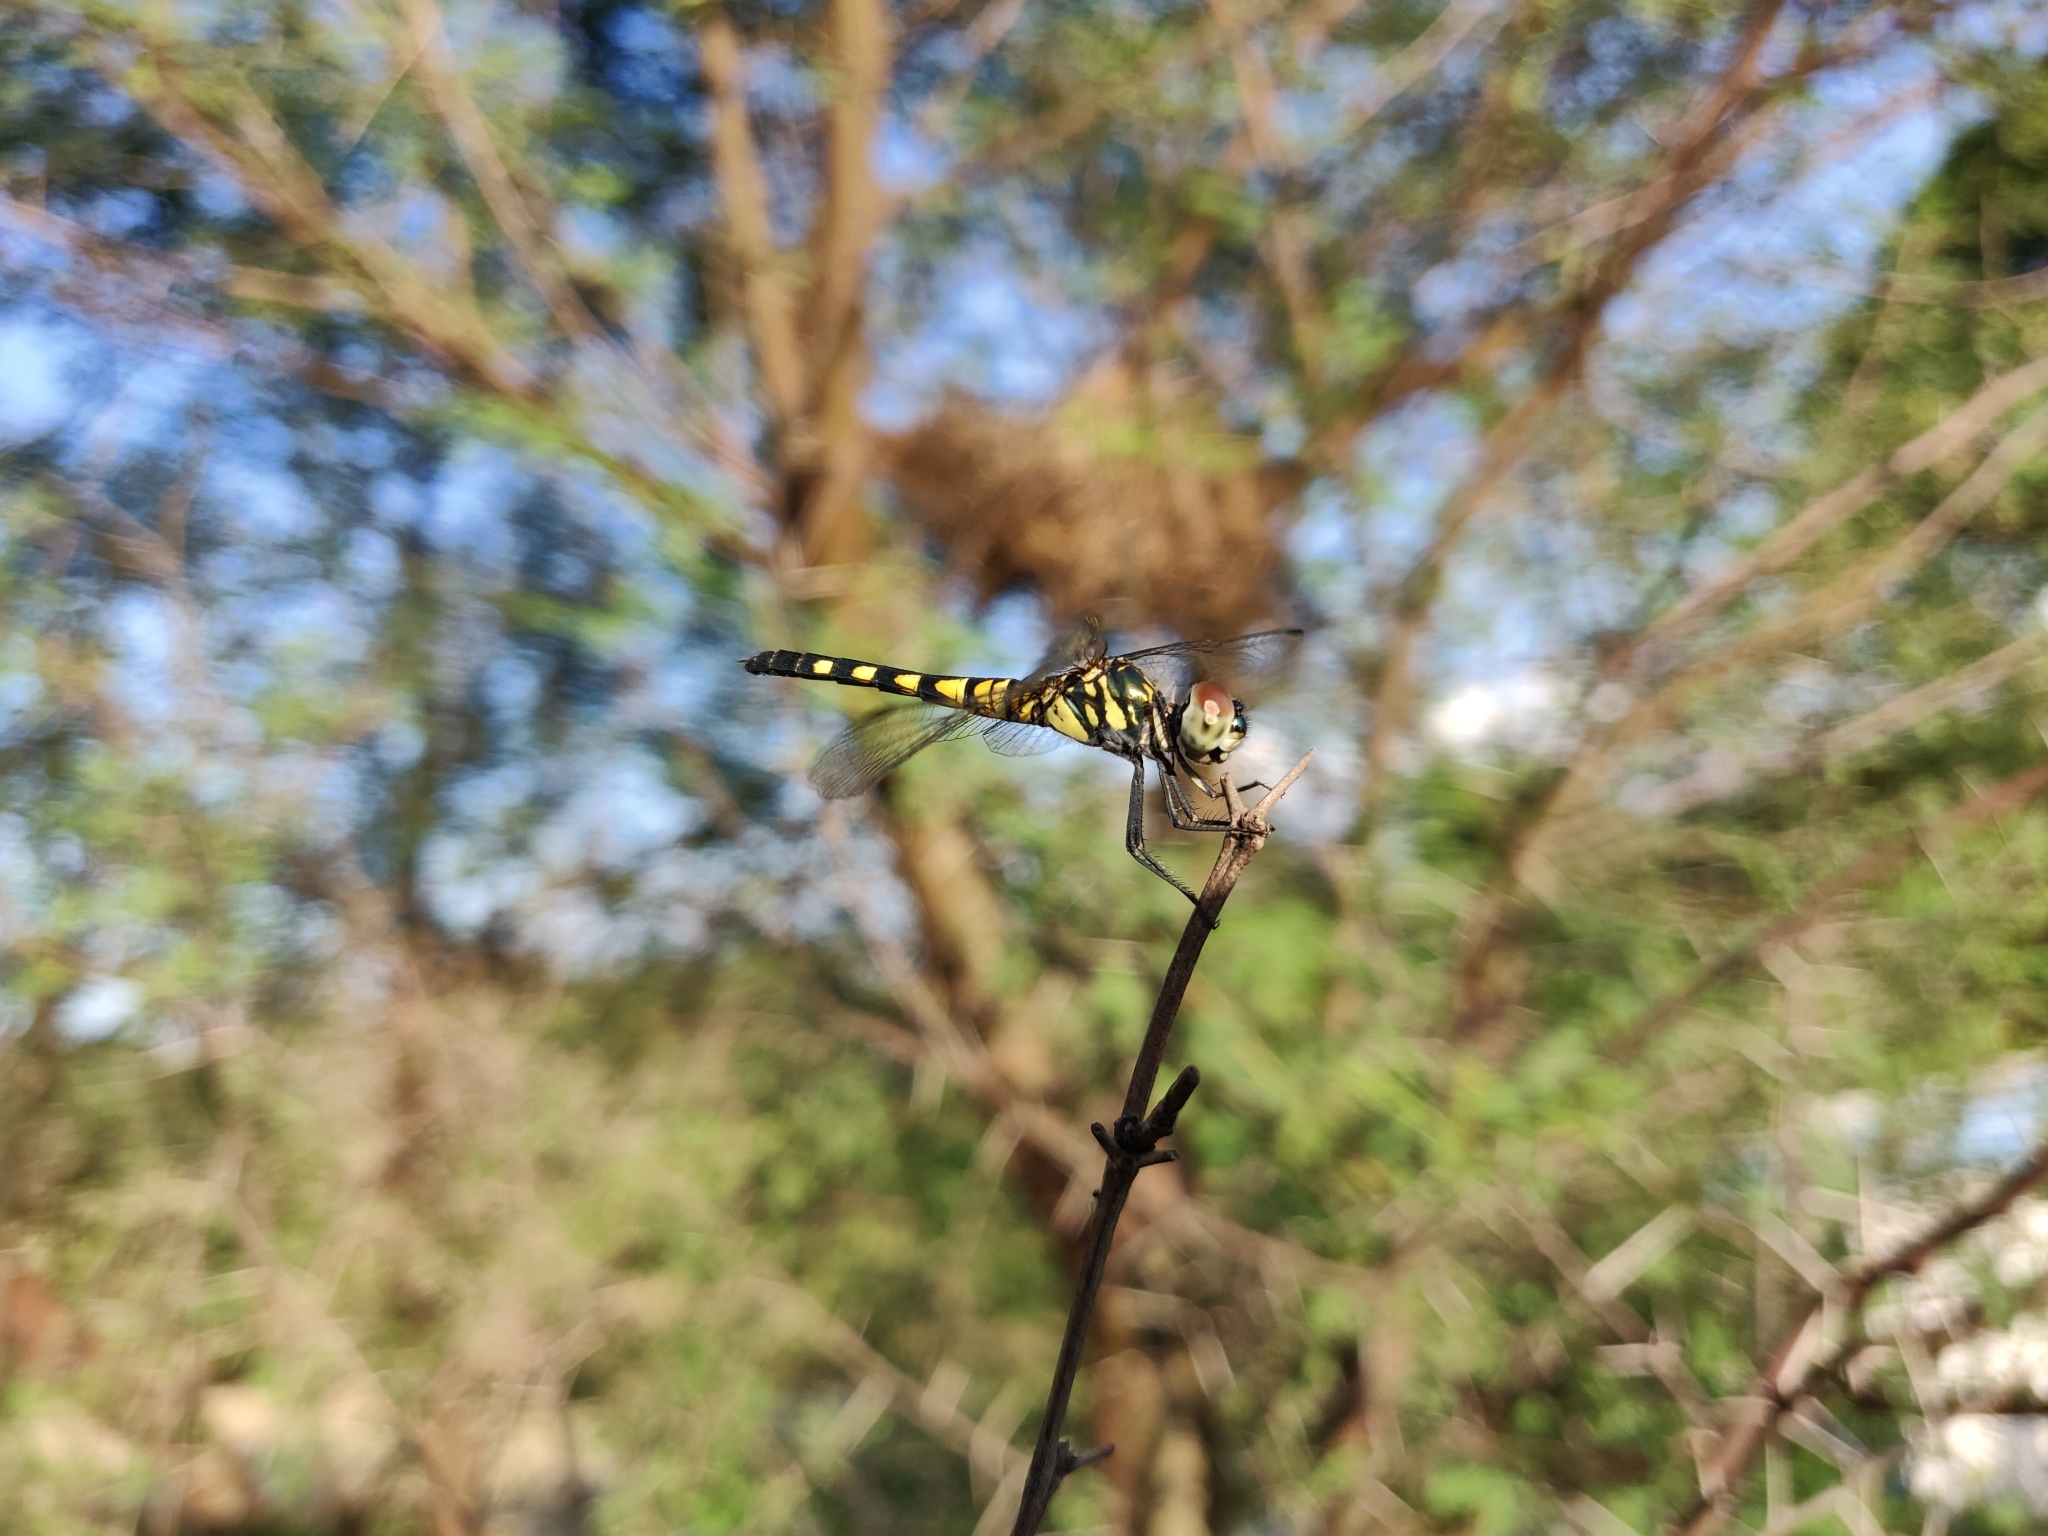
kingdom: Animalia
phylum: Arthropoda
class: Insecta
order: Odonata
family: Libellulidae
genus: Brachydiplax
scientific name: Brachydiplax sobrina
